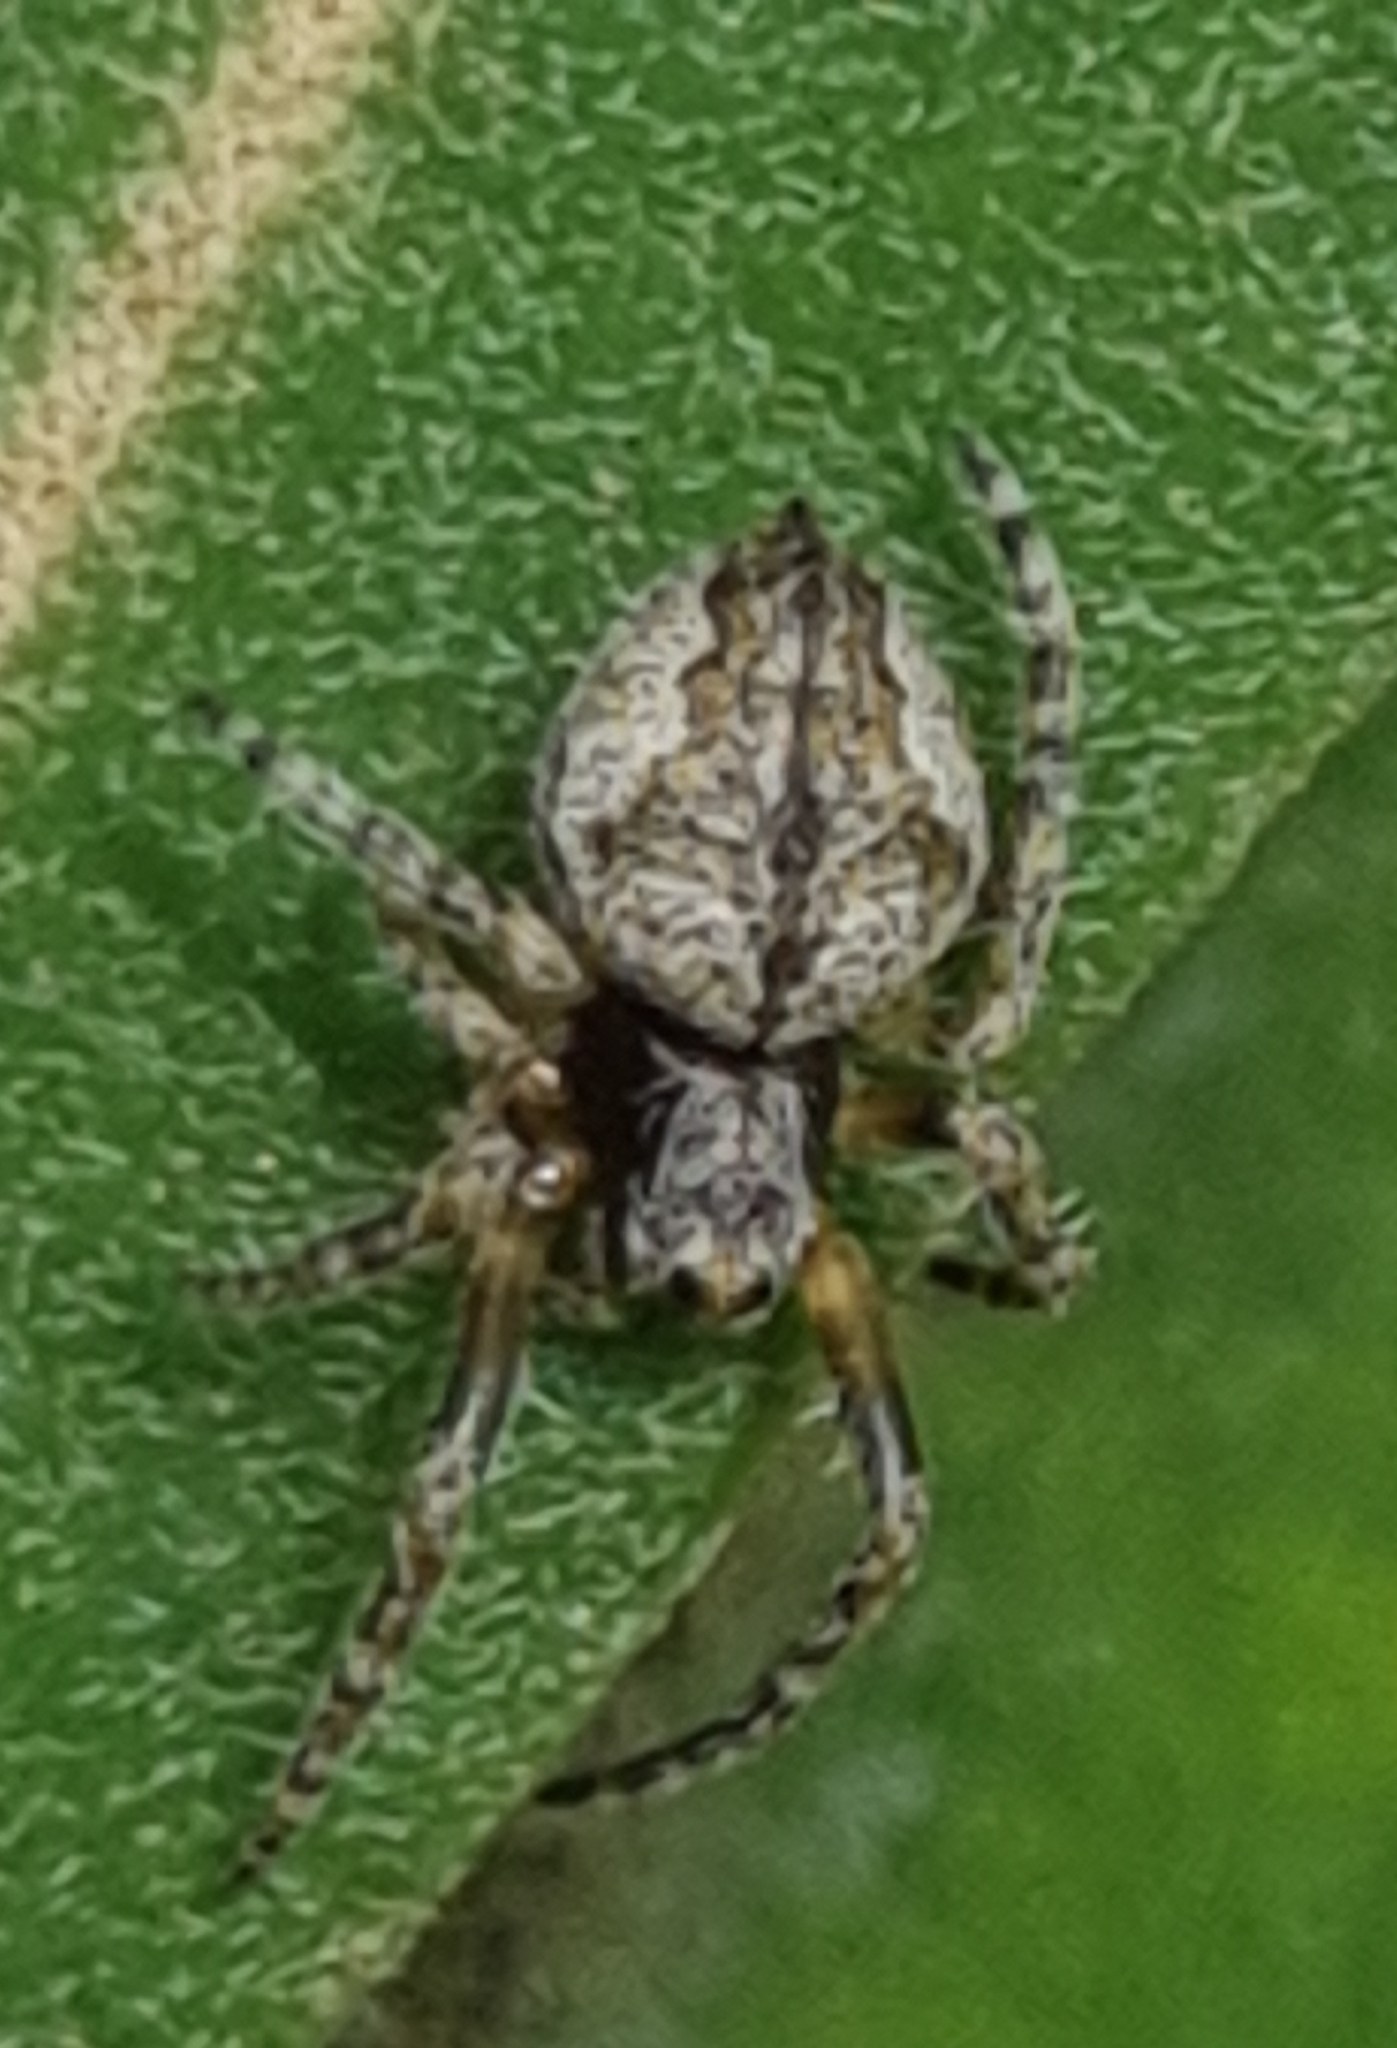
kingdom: Animalia
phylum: Arthropoda
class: Arachnida
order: Araneae
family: Araneidae
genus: Socca
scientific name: Socca
